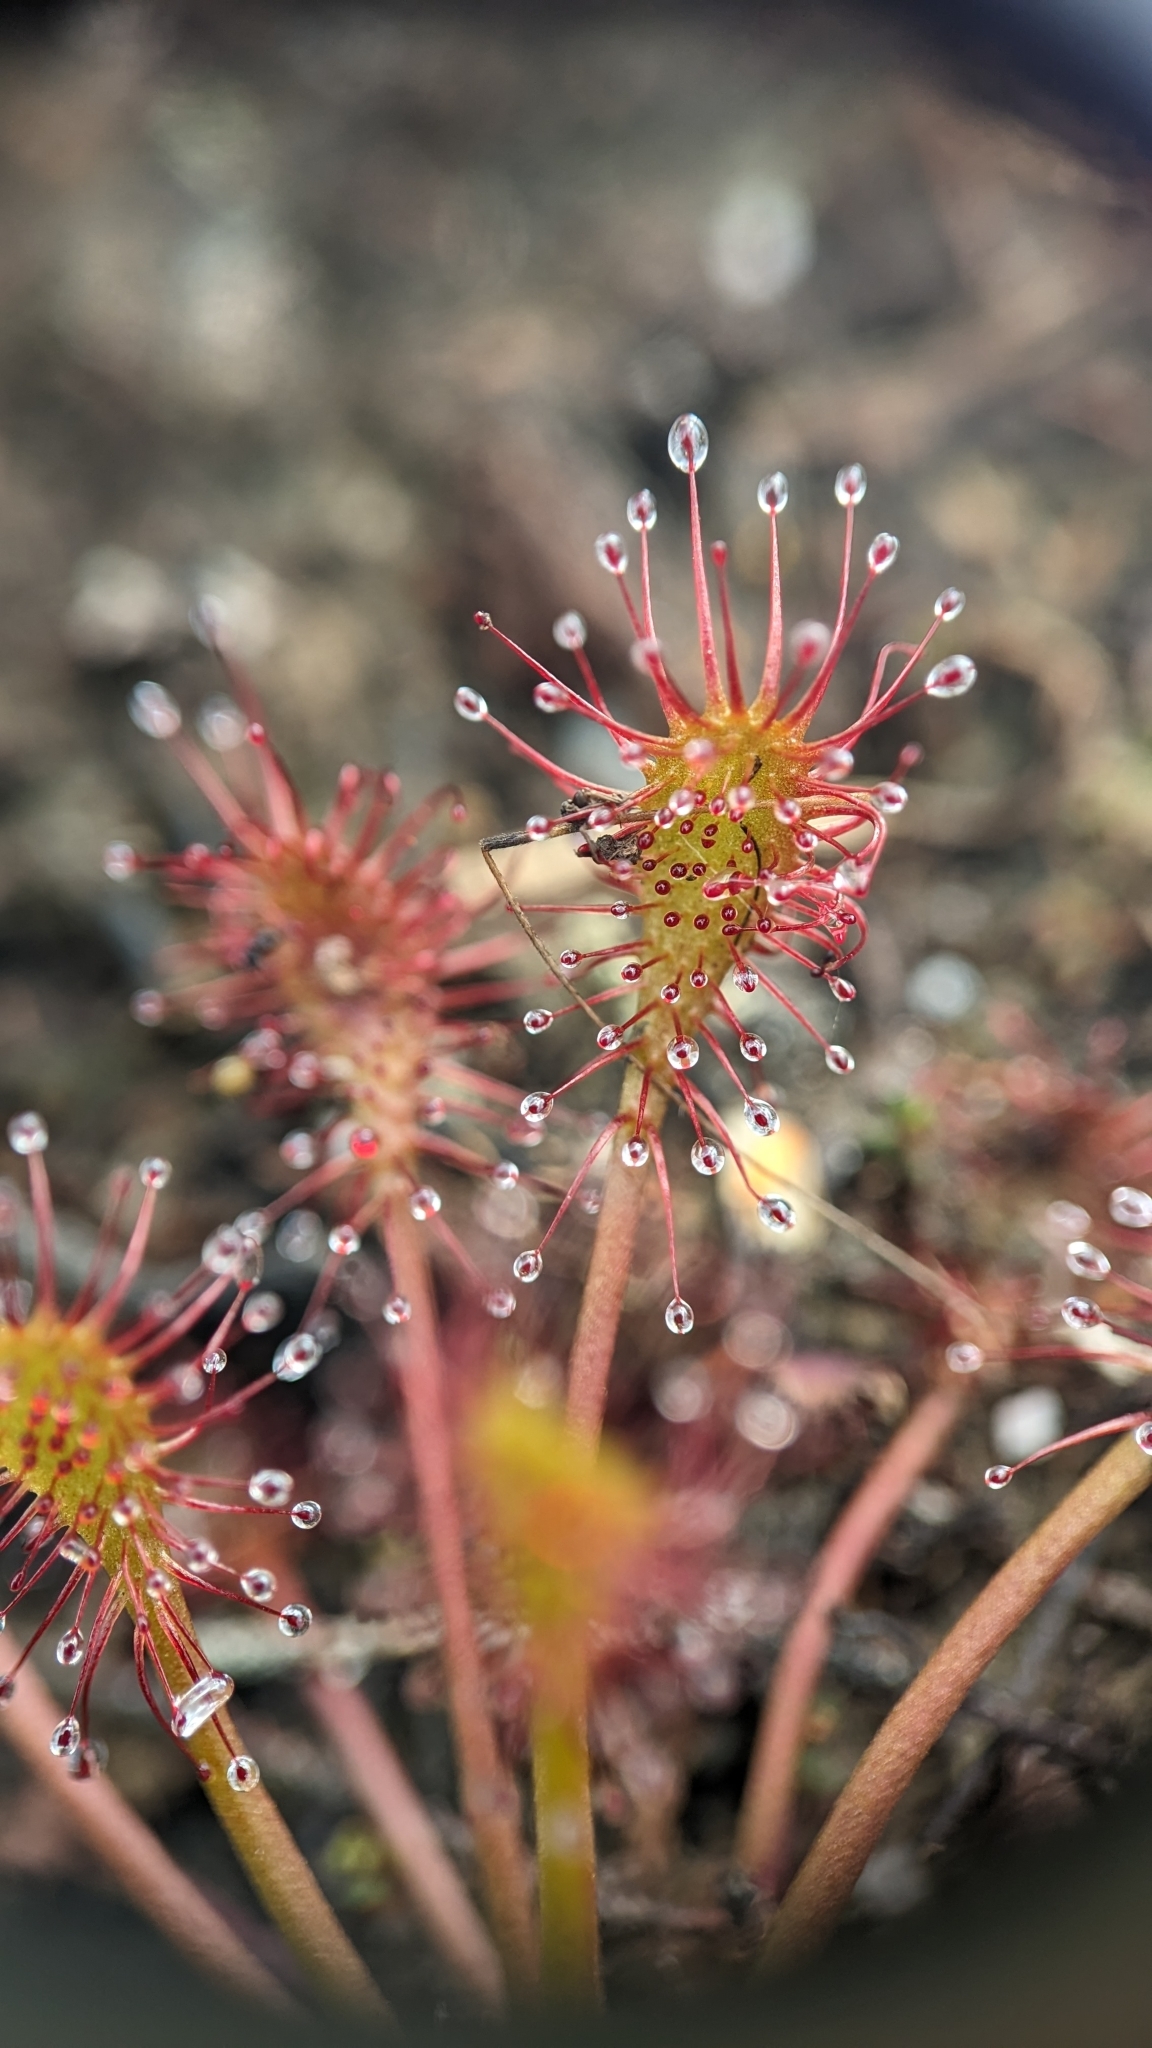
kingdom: Plantae
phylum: Tracheophyta
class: Magnoliopsida
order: Caryophyllales
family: Droseraceae
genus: Drosera
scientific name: Drosera intermedia
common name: Oblong-leaved sundew
